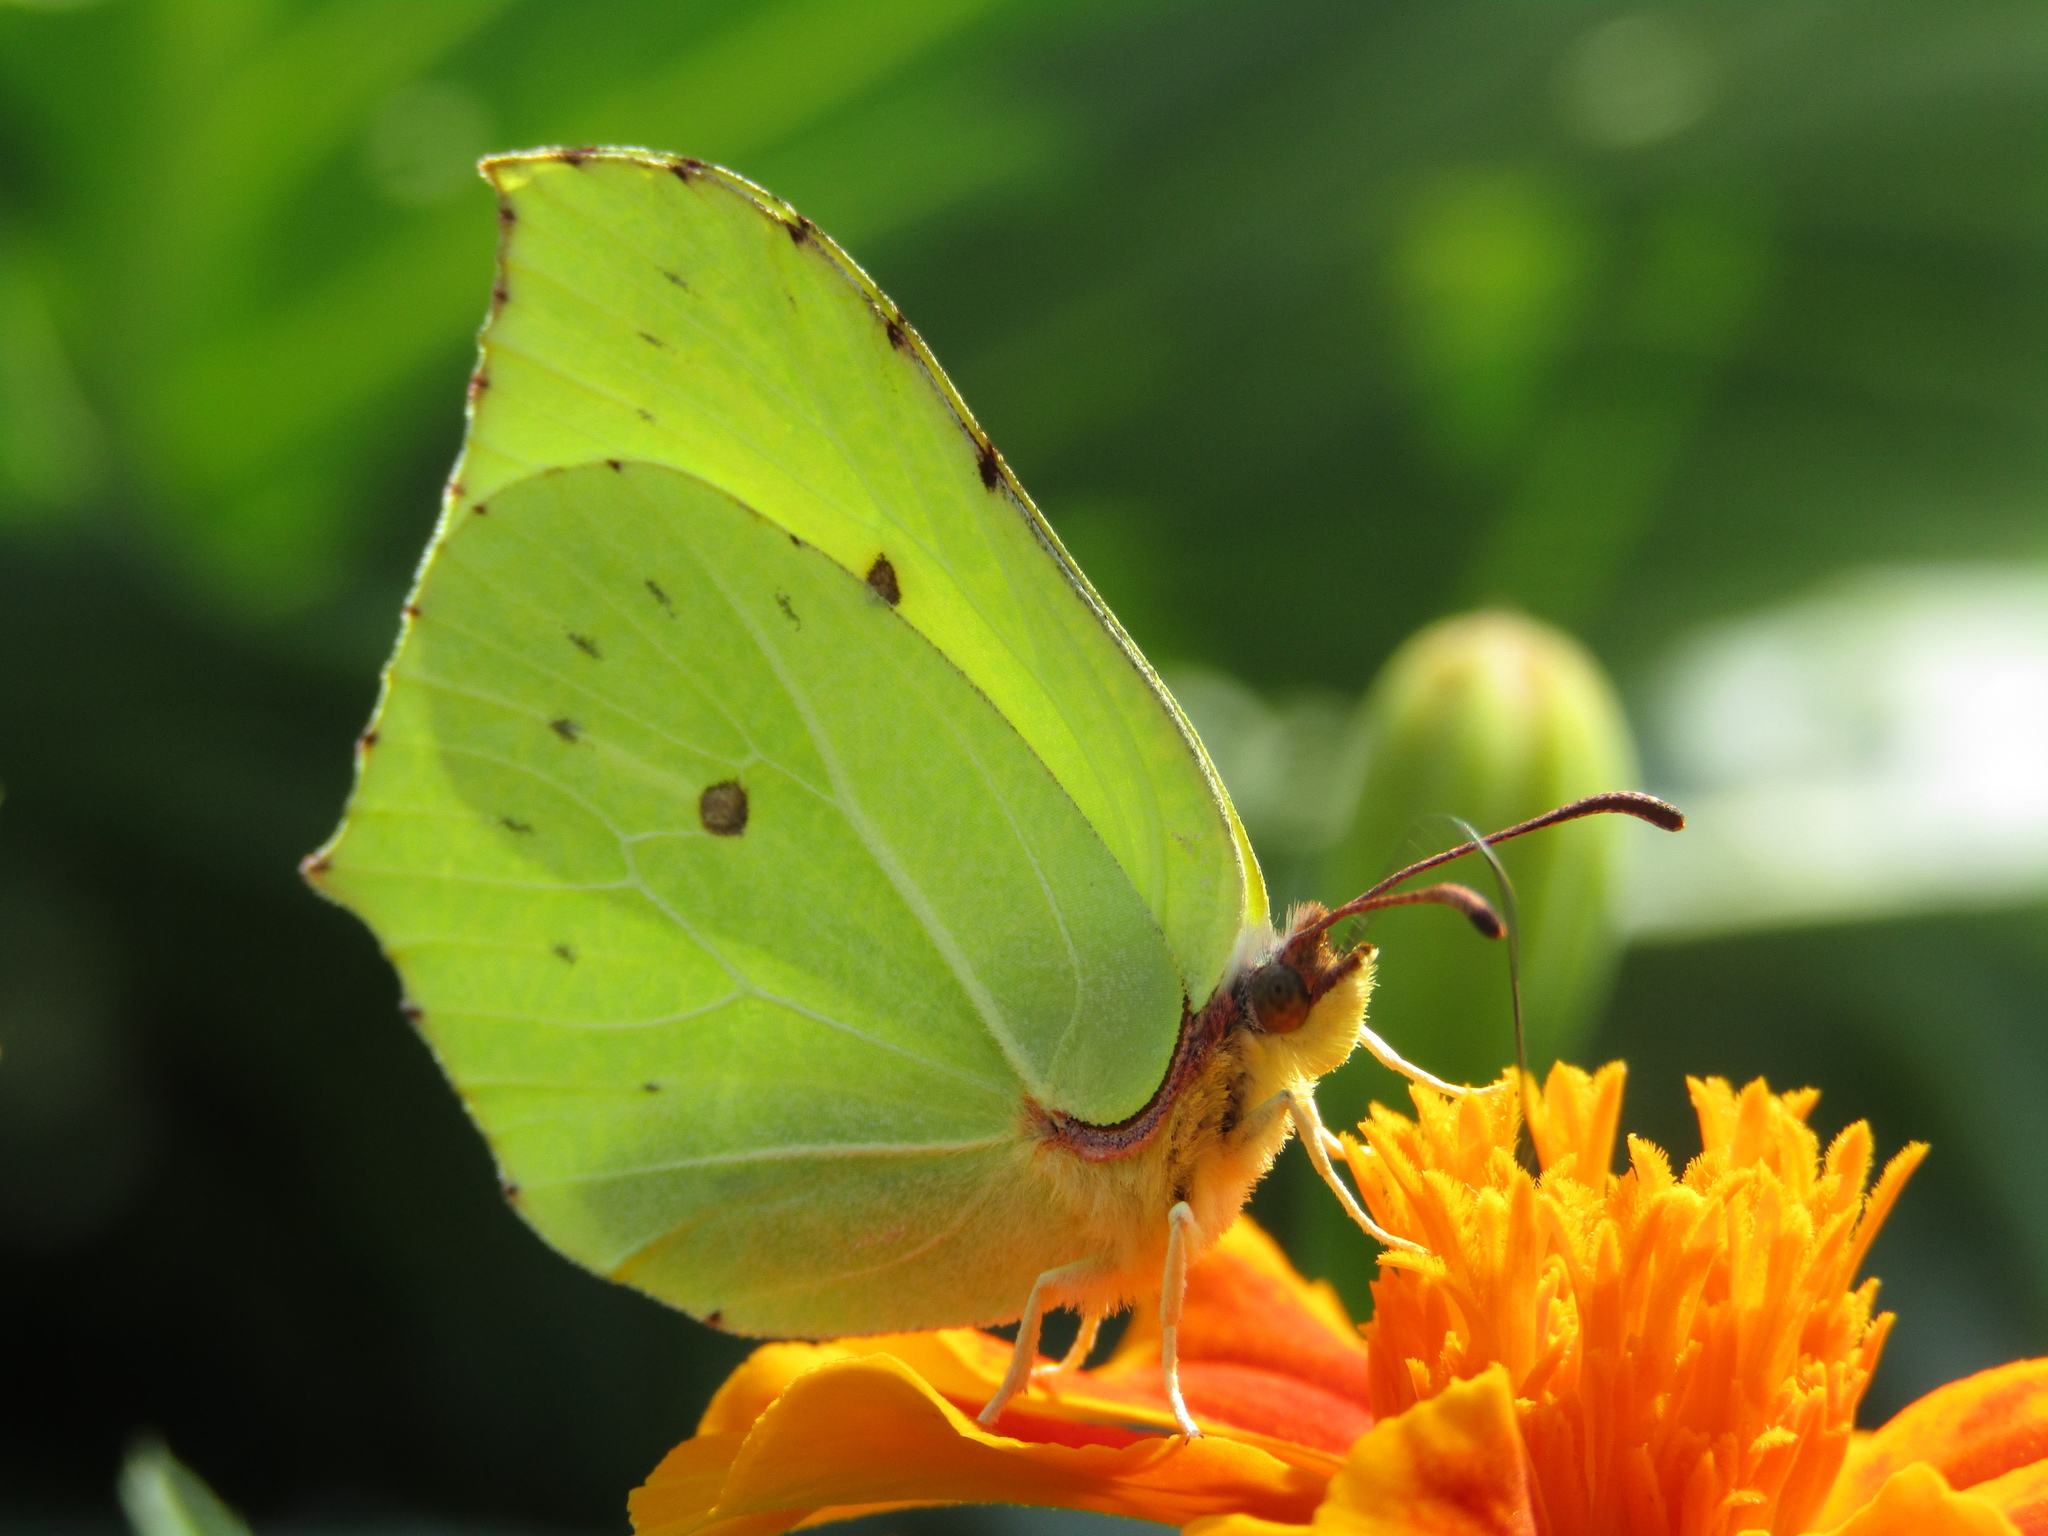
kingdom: Animalia
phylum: Arthropoda
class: Insecta
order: Lepidoptera
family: Pieridae
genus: Gonepteryx
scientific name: Gonepteryx rhamni
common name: Brimstone
